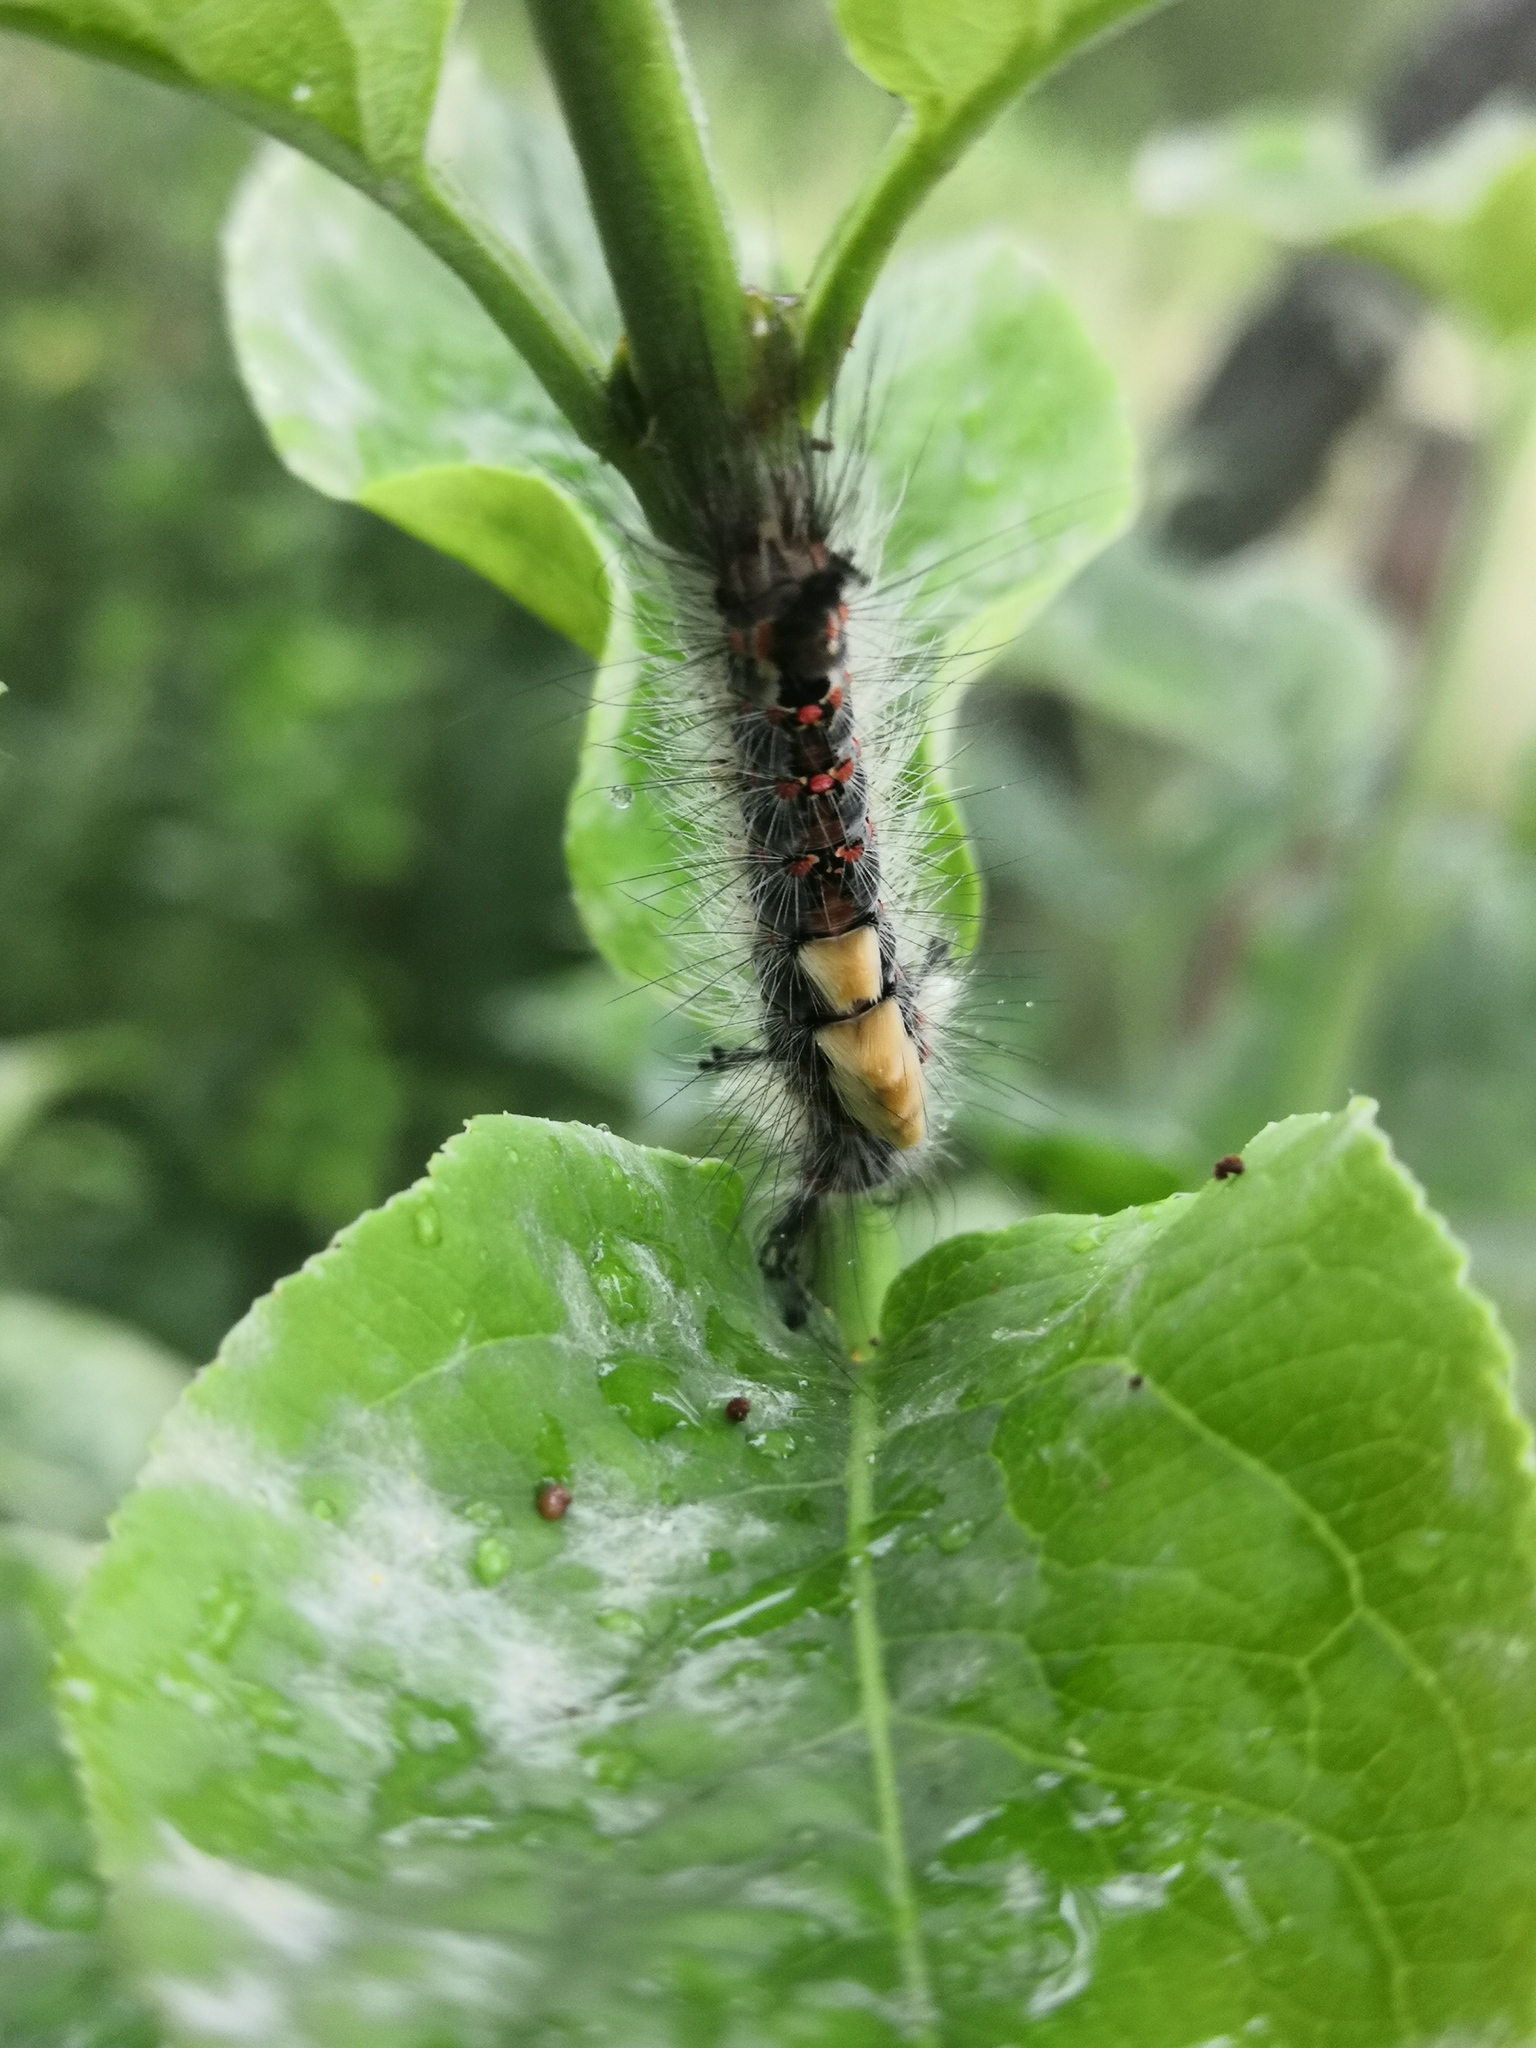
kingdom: Animalia
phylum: Arthropoda
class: Insecta
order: Lepidoptera
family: Erebidae
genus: Orgyia
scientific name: Orgyia antiqua
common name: Vapourer
